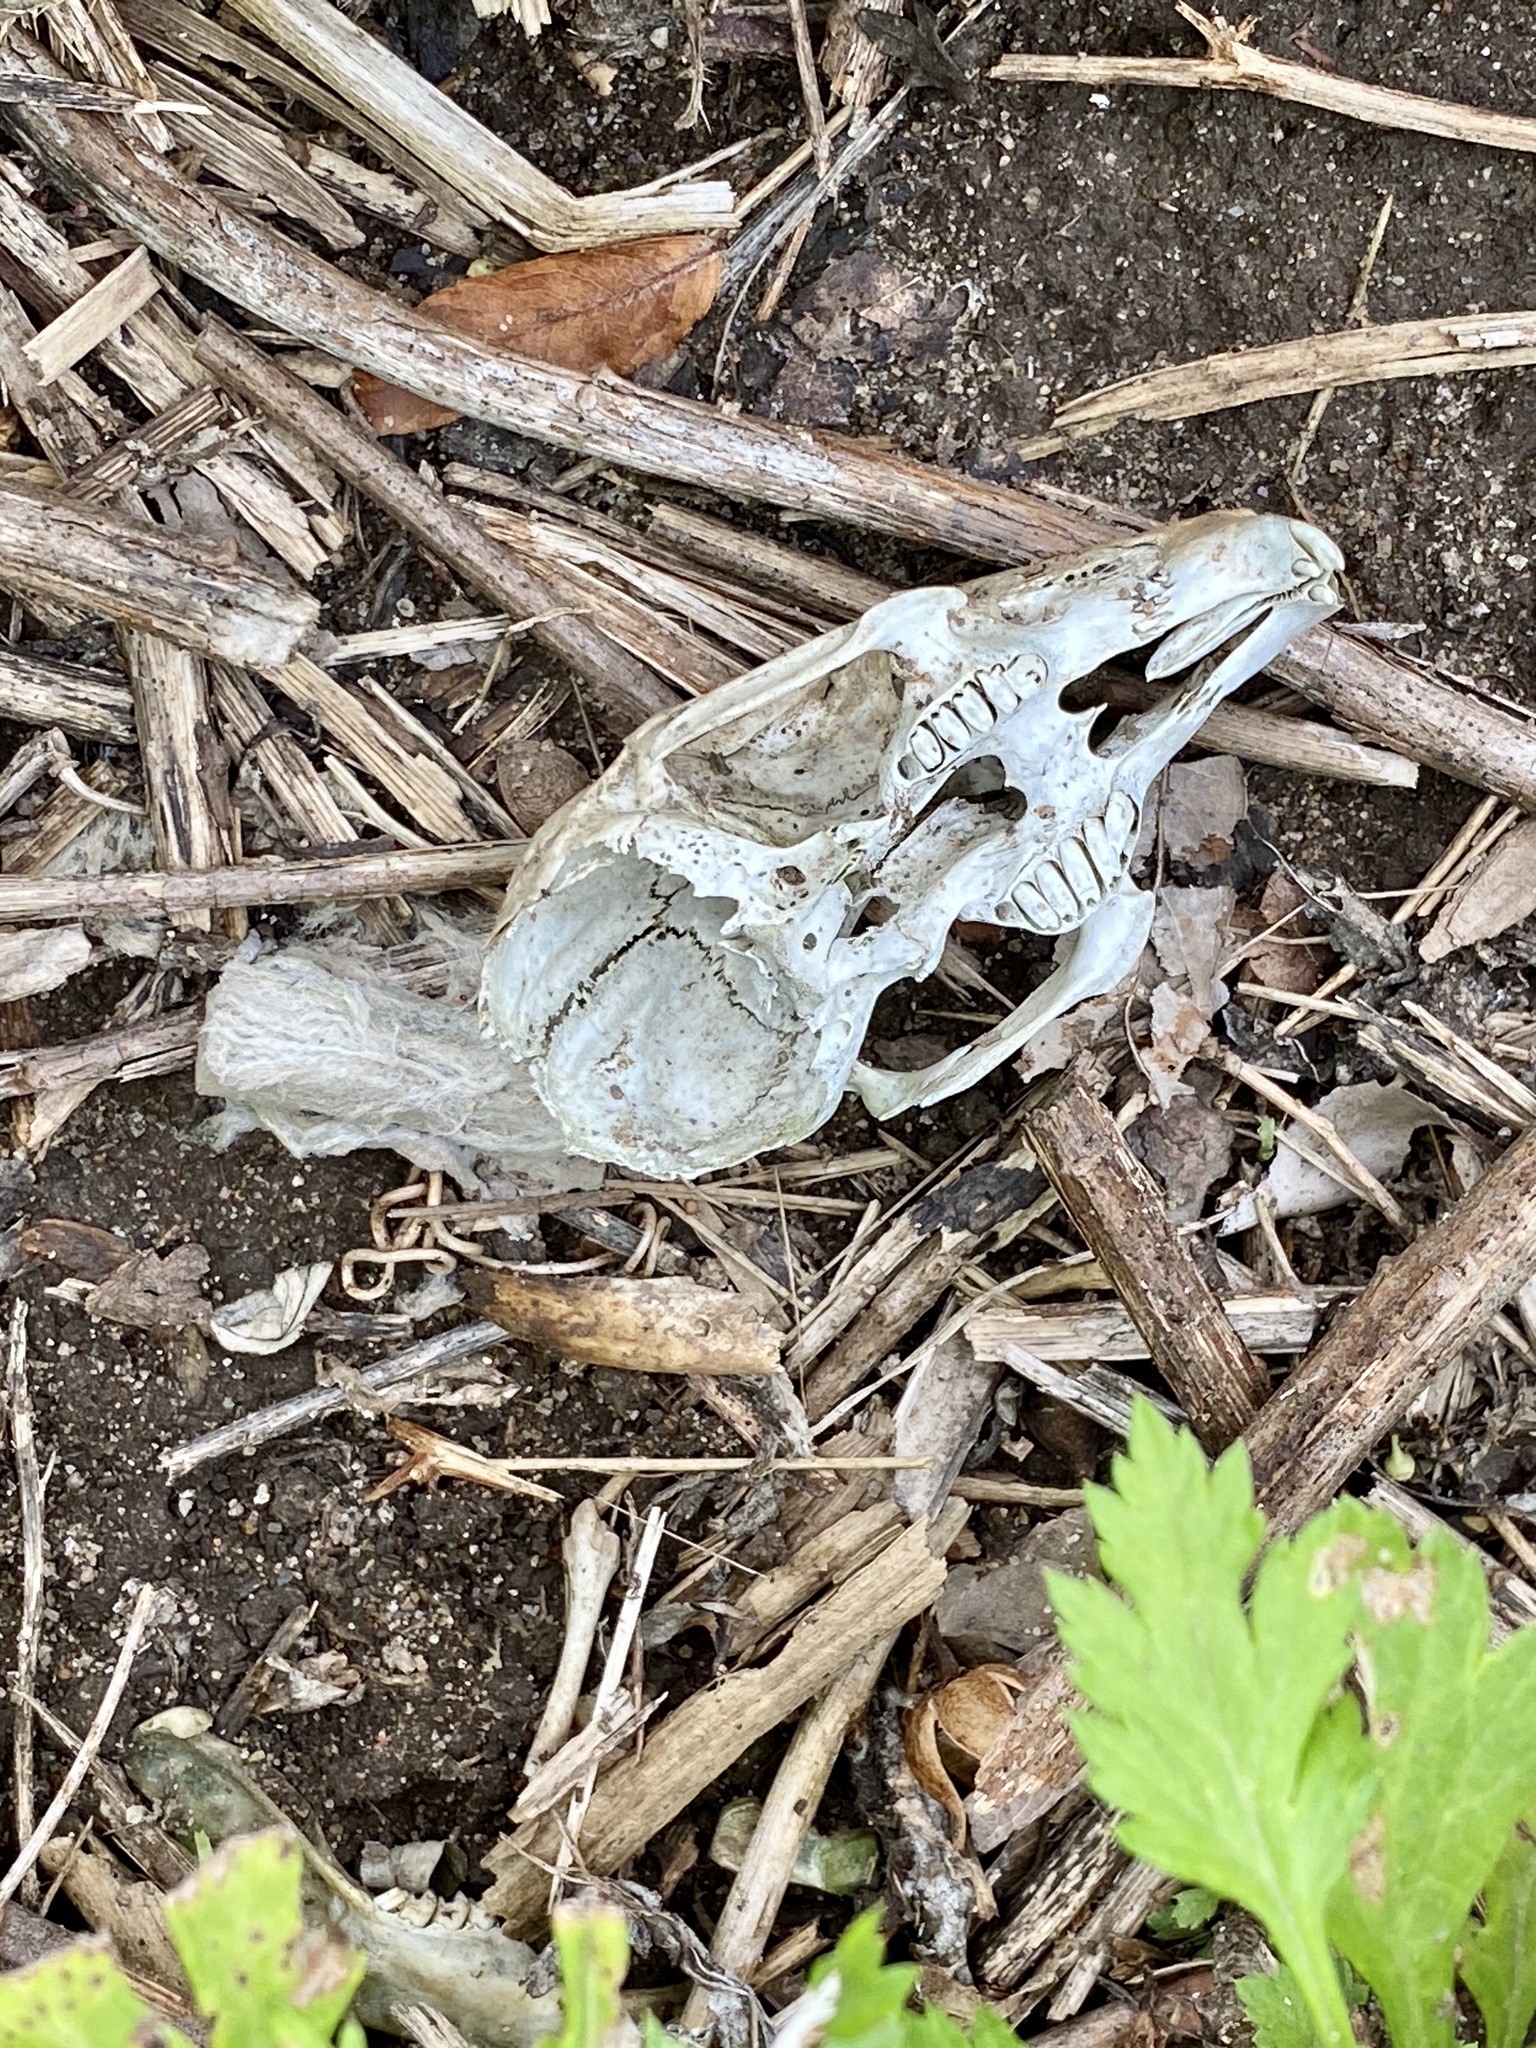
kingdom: Animalia
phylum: Chordata
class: Mammalia
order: Lagomorpha
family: Leporidae
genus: Sylvilagus
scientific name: Sylvilagus floridanus
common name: Eastern cottontail
